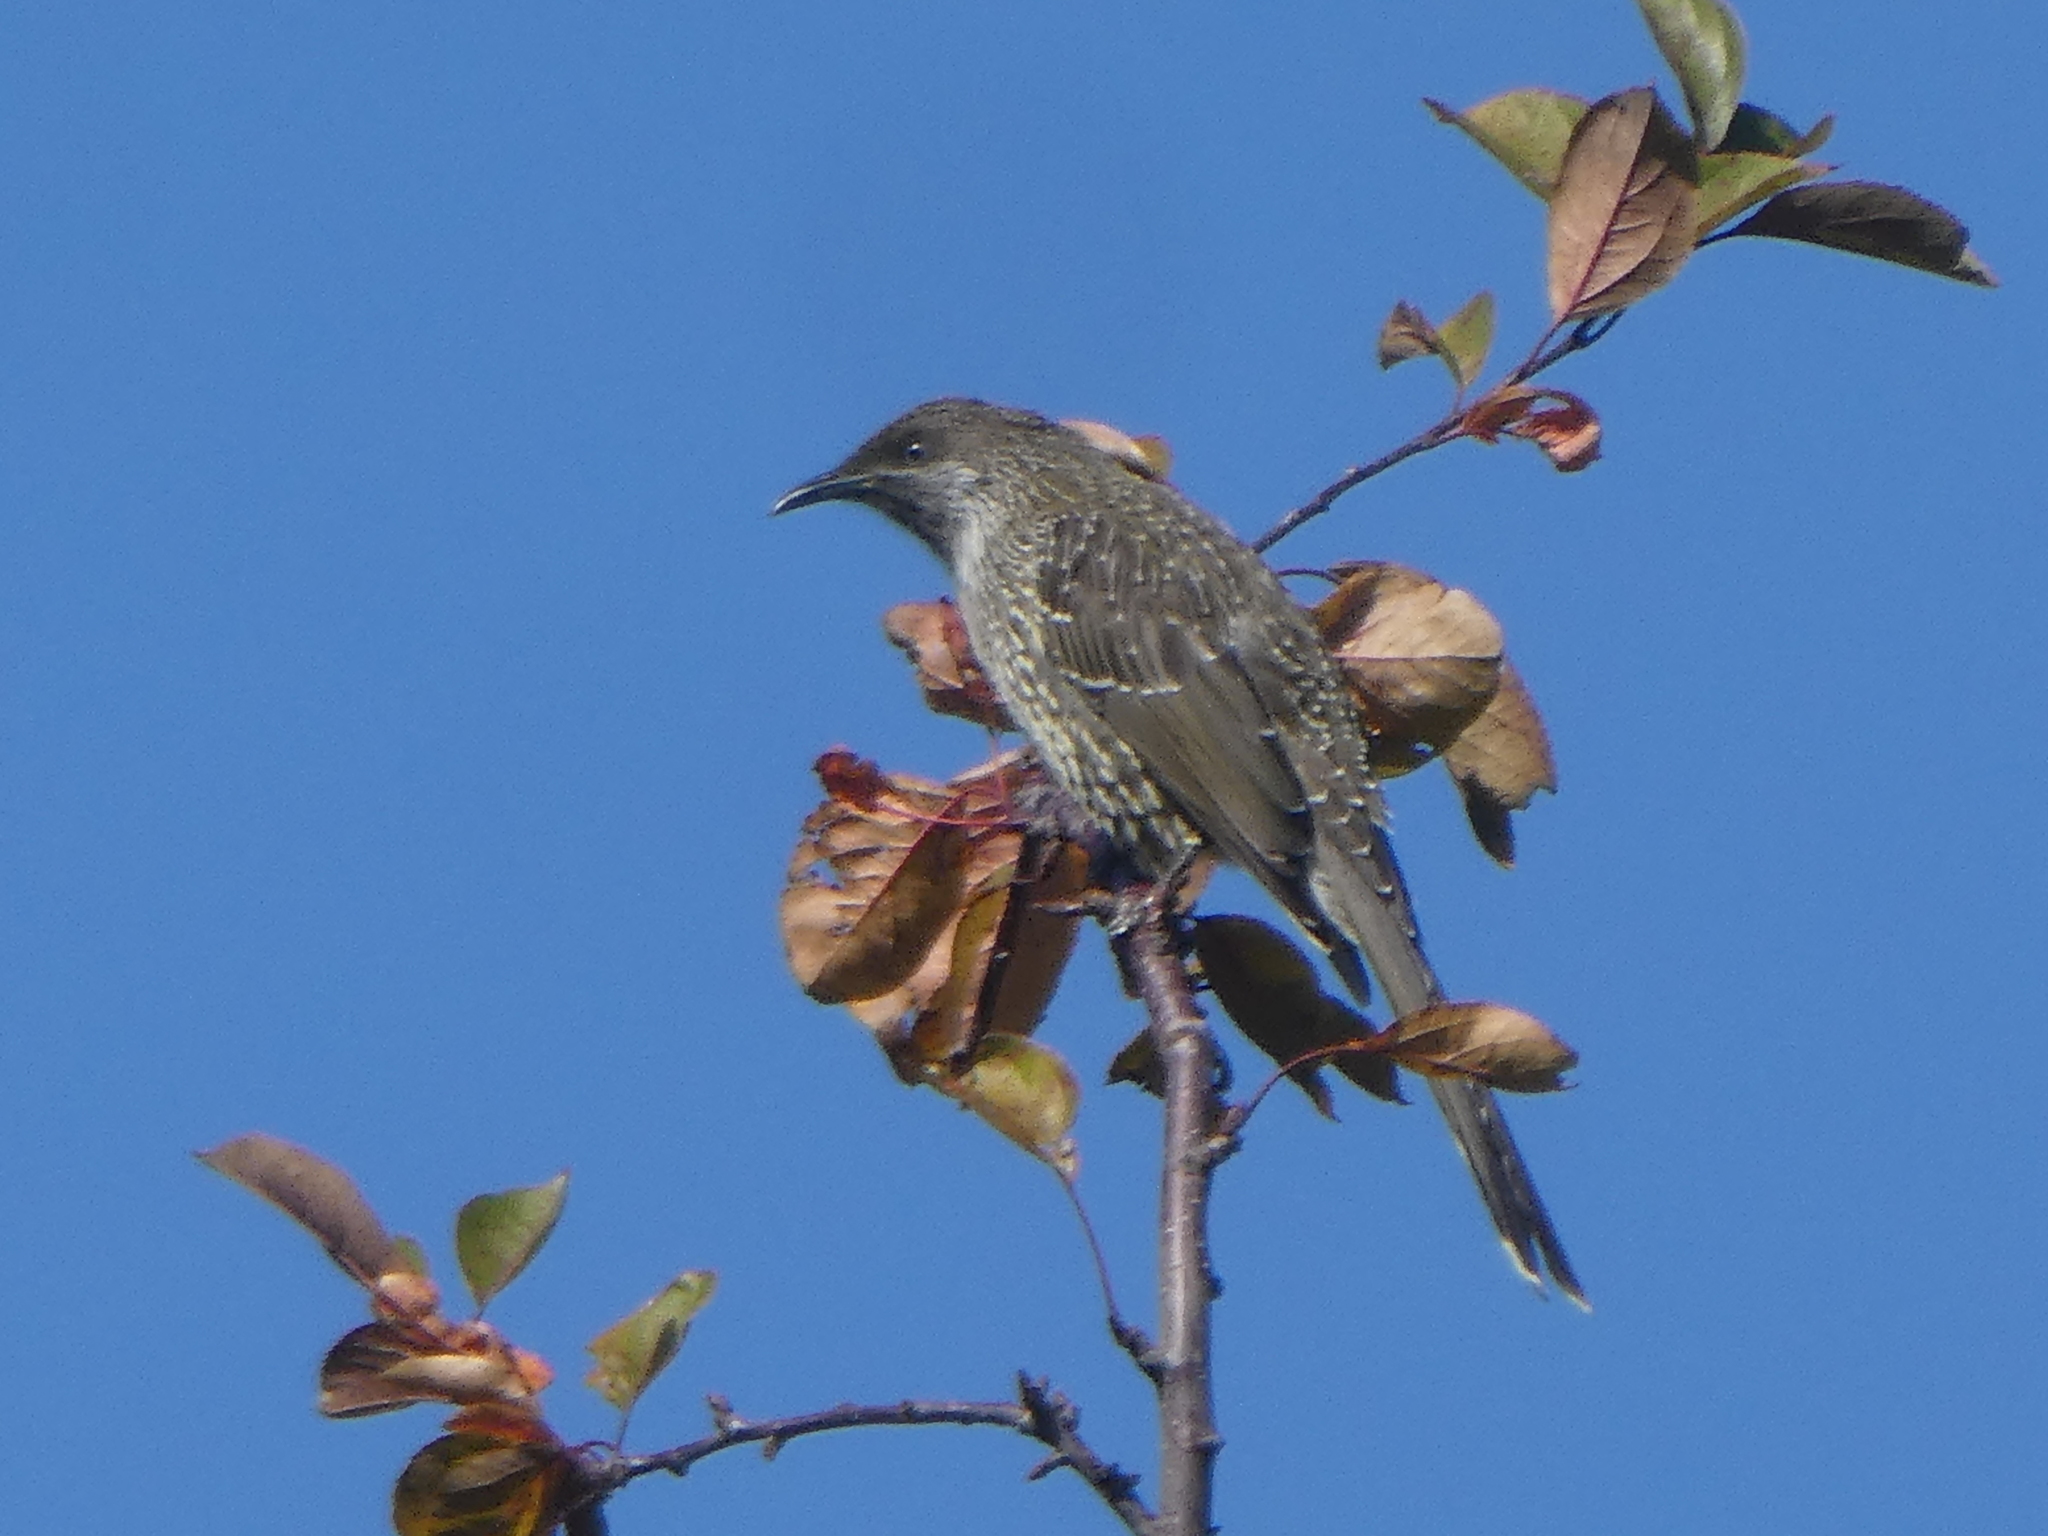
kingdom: Animalia
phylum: Chordata
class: Aves
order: Passeriformes
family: Meliphagidae
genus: Anthochaera
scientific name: Anthochaera chrysoptera
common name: Little wattlebird
